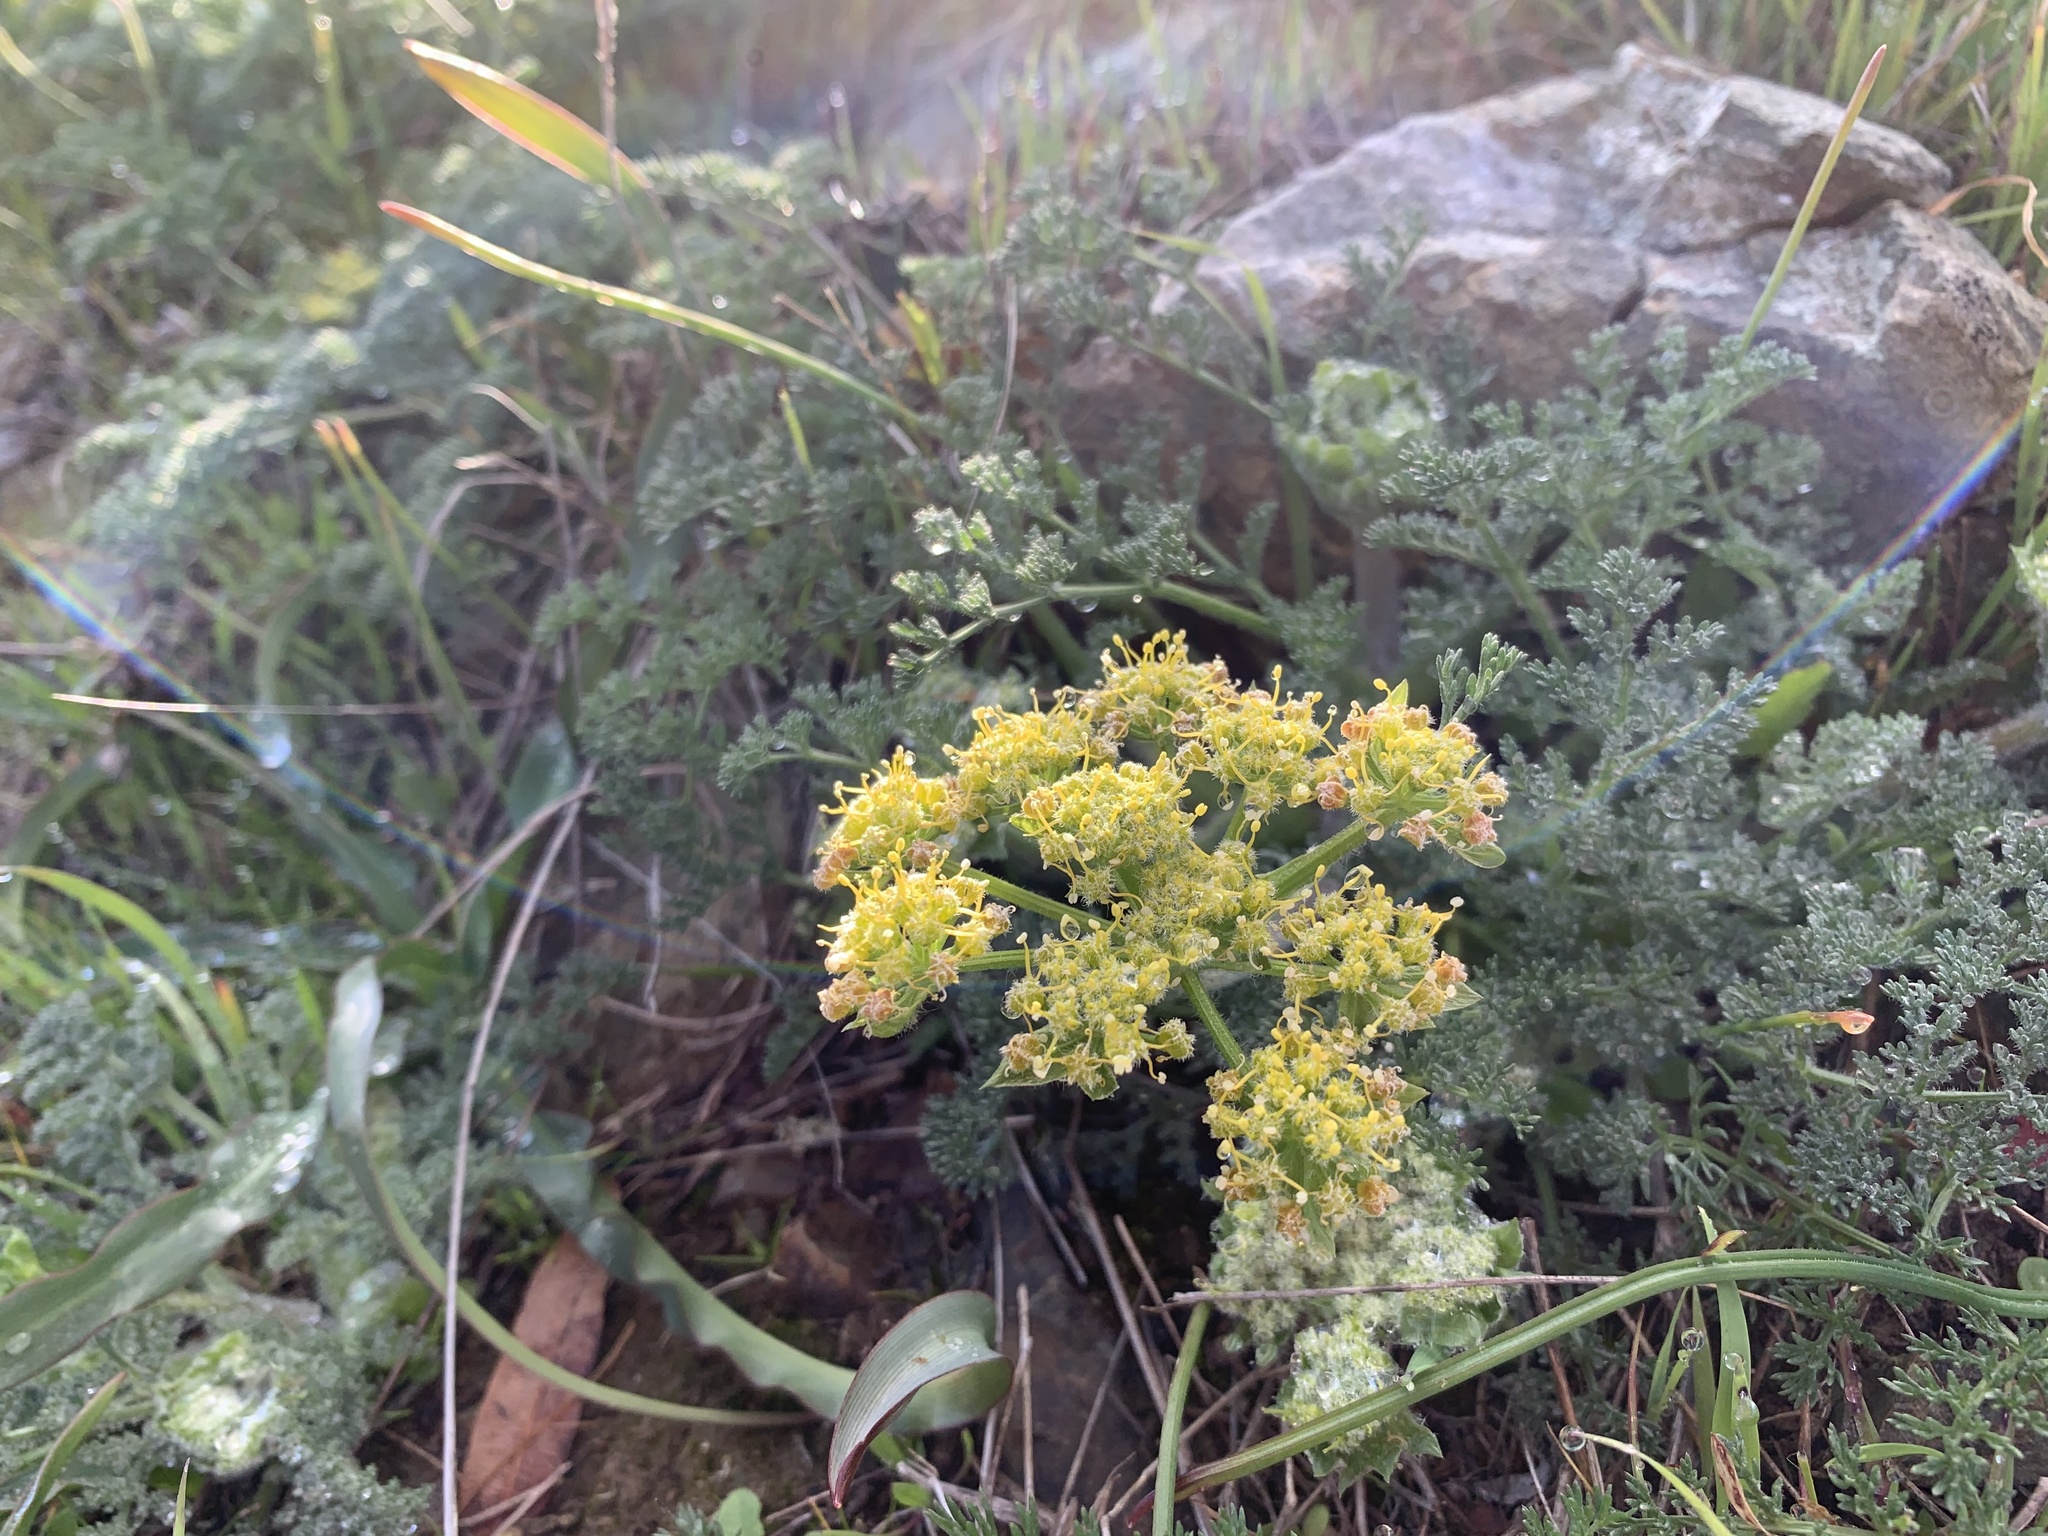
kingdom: Plantae
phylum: Tracheophyta
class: Magnoliopsida
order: Apiales
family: Apiaceae
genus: Lomatium
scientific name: Lomatium dasycarpum
